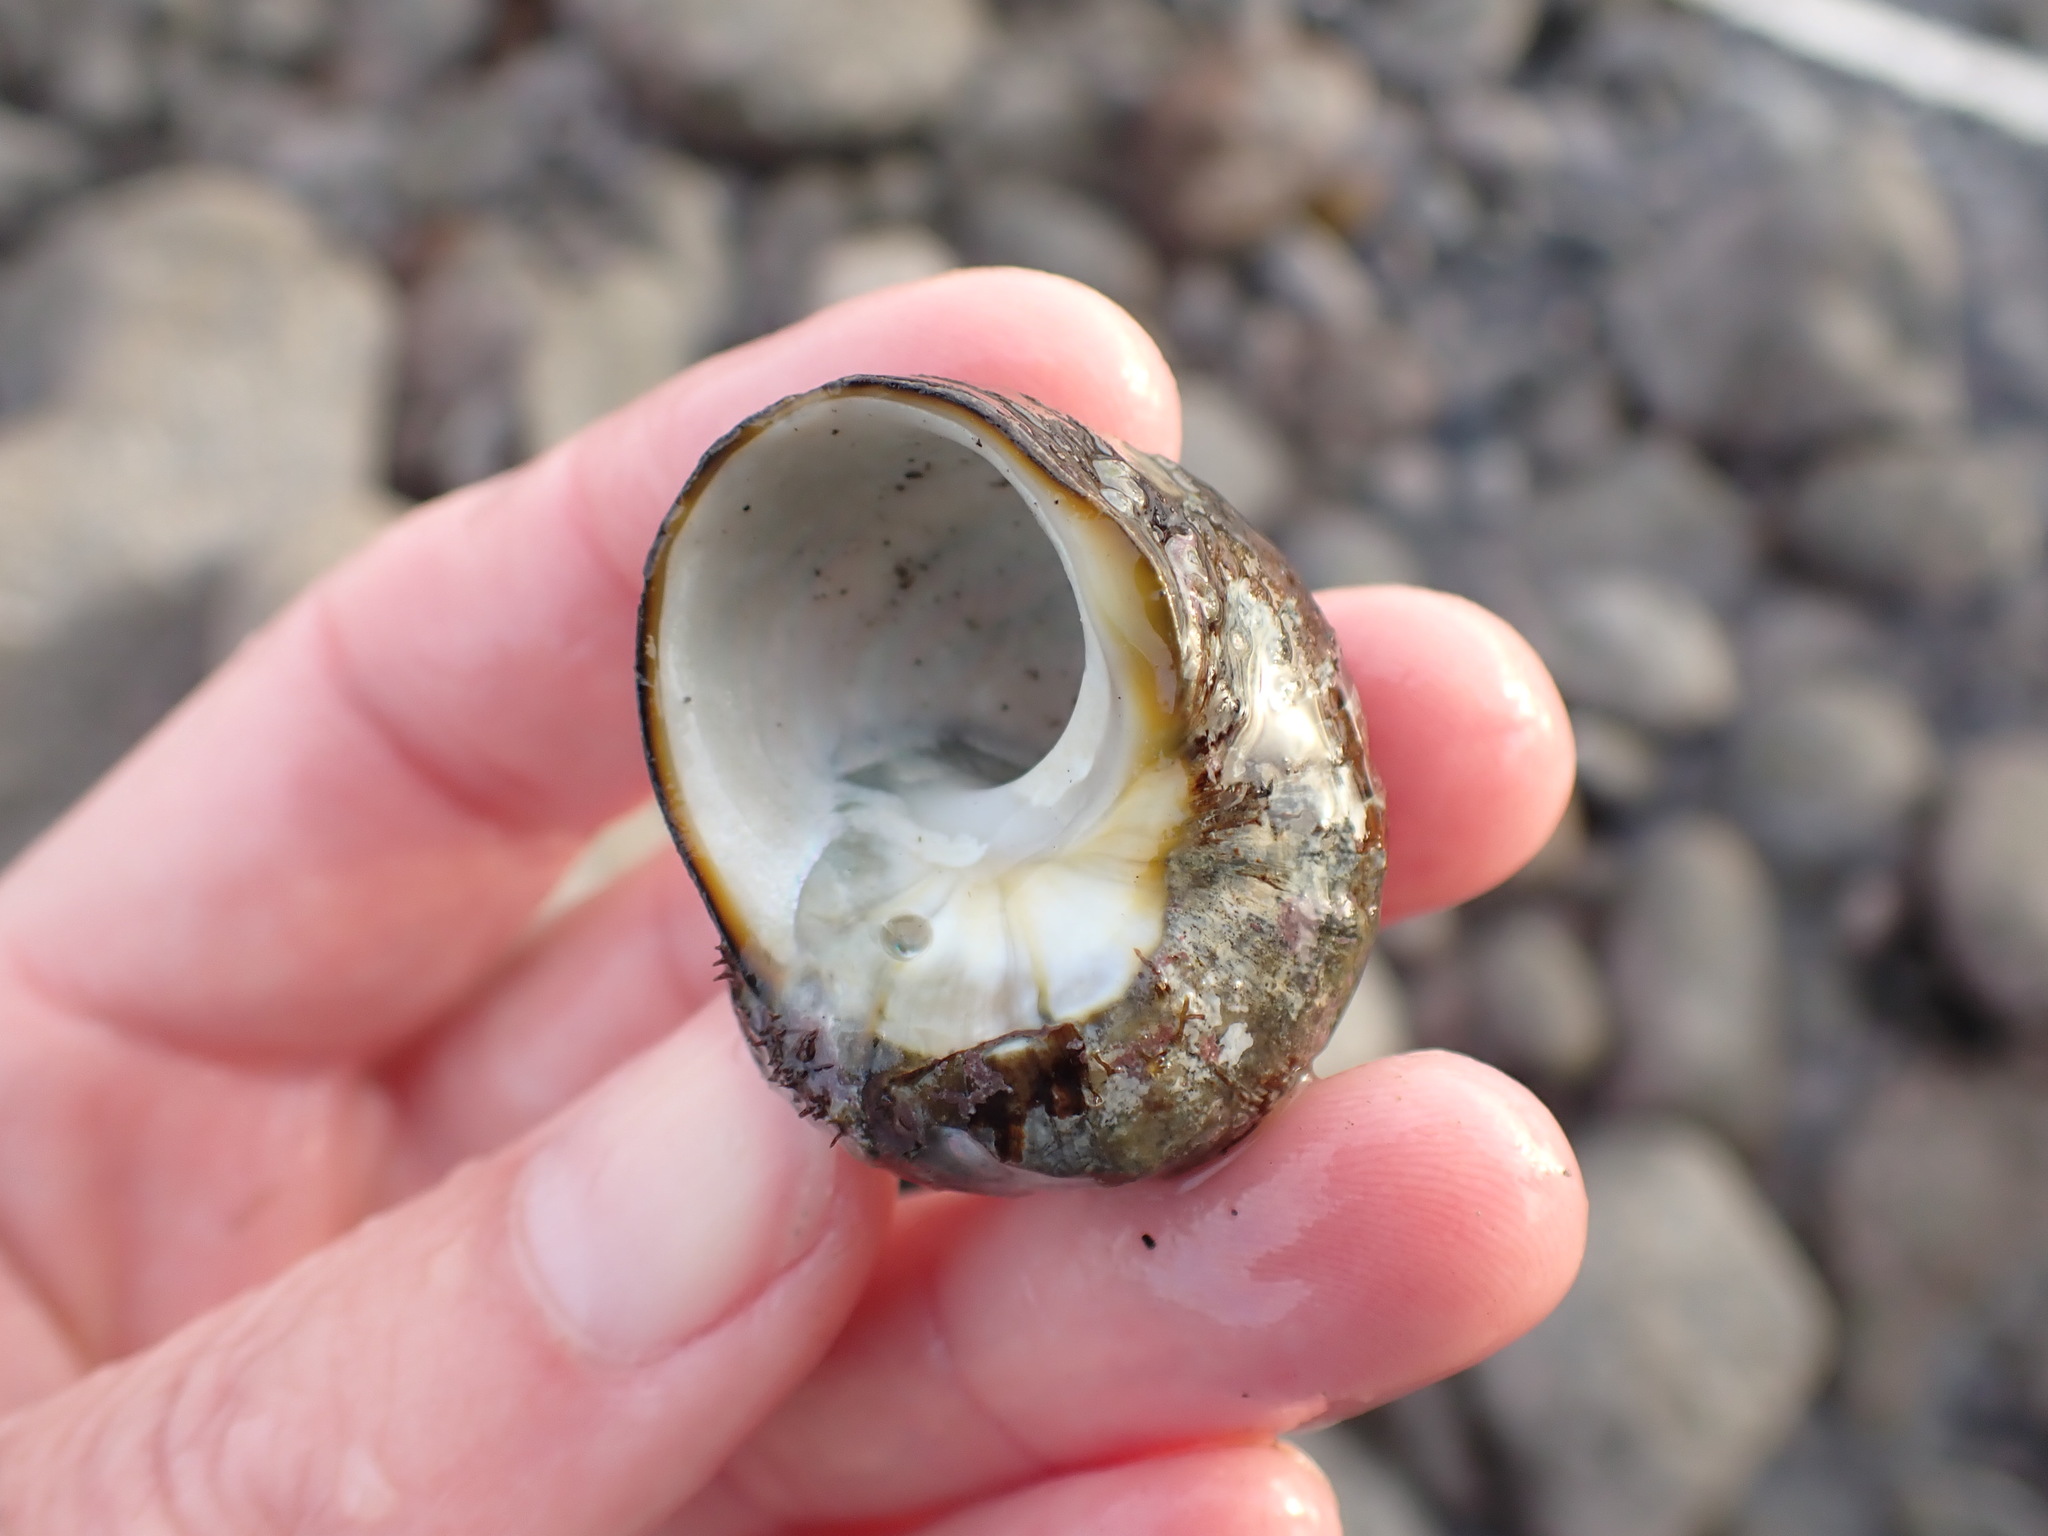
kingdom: Animalia
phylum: Mollusca
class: Gastropoda
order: Trochida
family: Turbinidae
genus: Lunella
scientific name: Lunella smaragda
